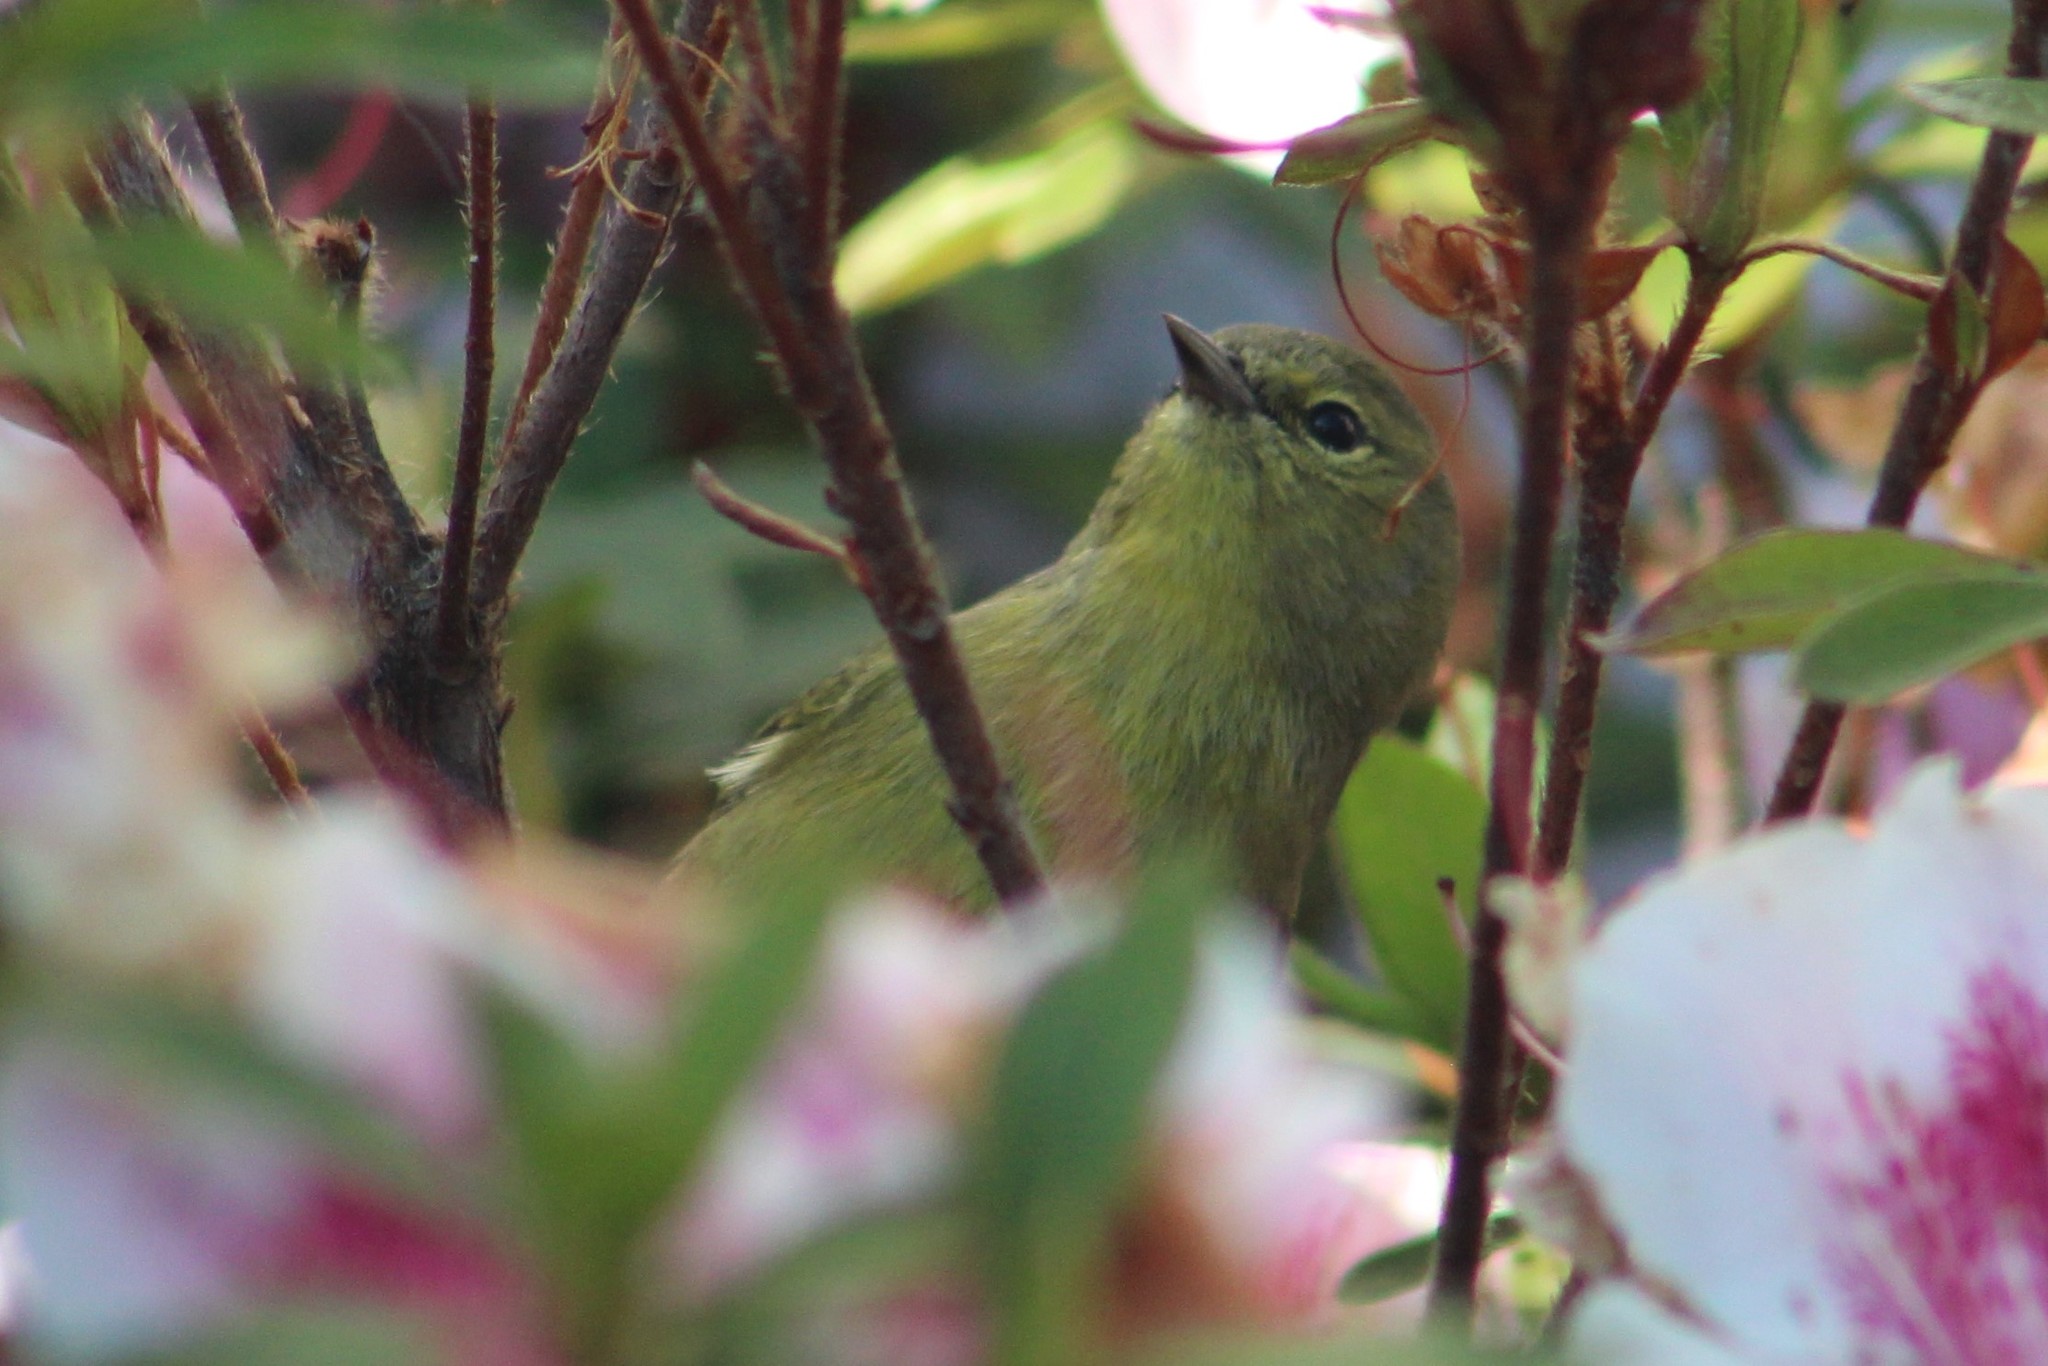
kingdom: Animalia
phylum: Chordata
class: Aves
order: Passeriformes
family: Parulidae
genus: Leiothlypis
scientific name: Leiothlypis celata
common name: Orange-crowned warbler
